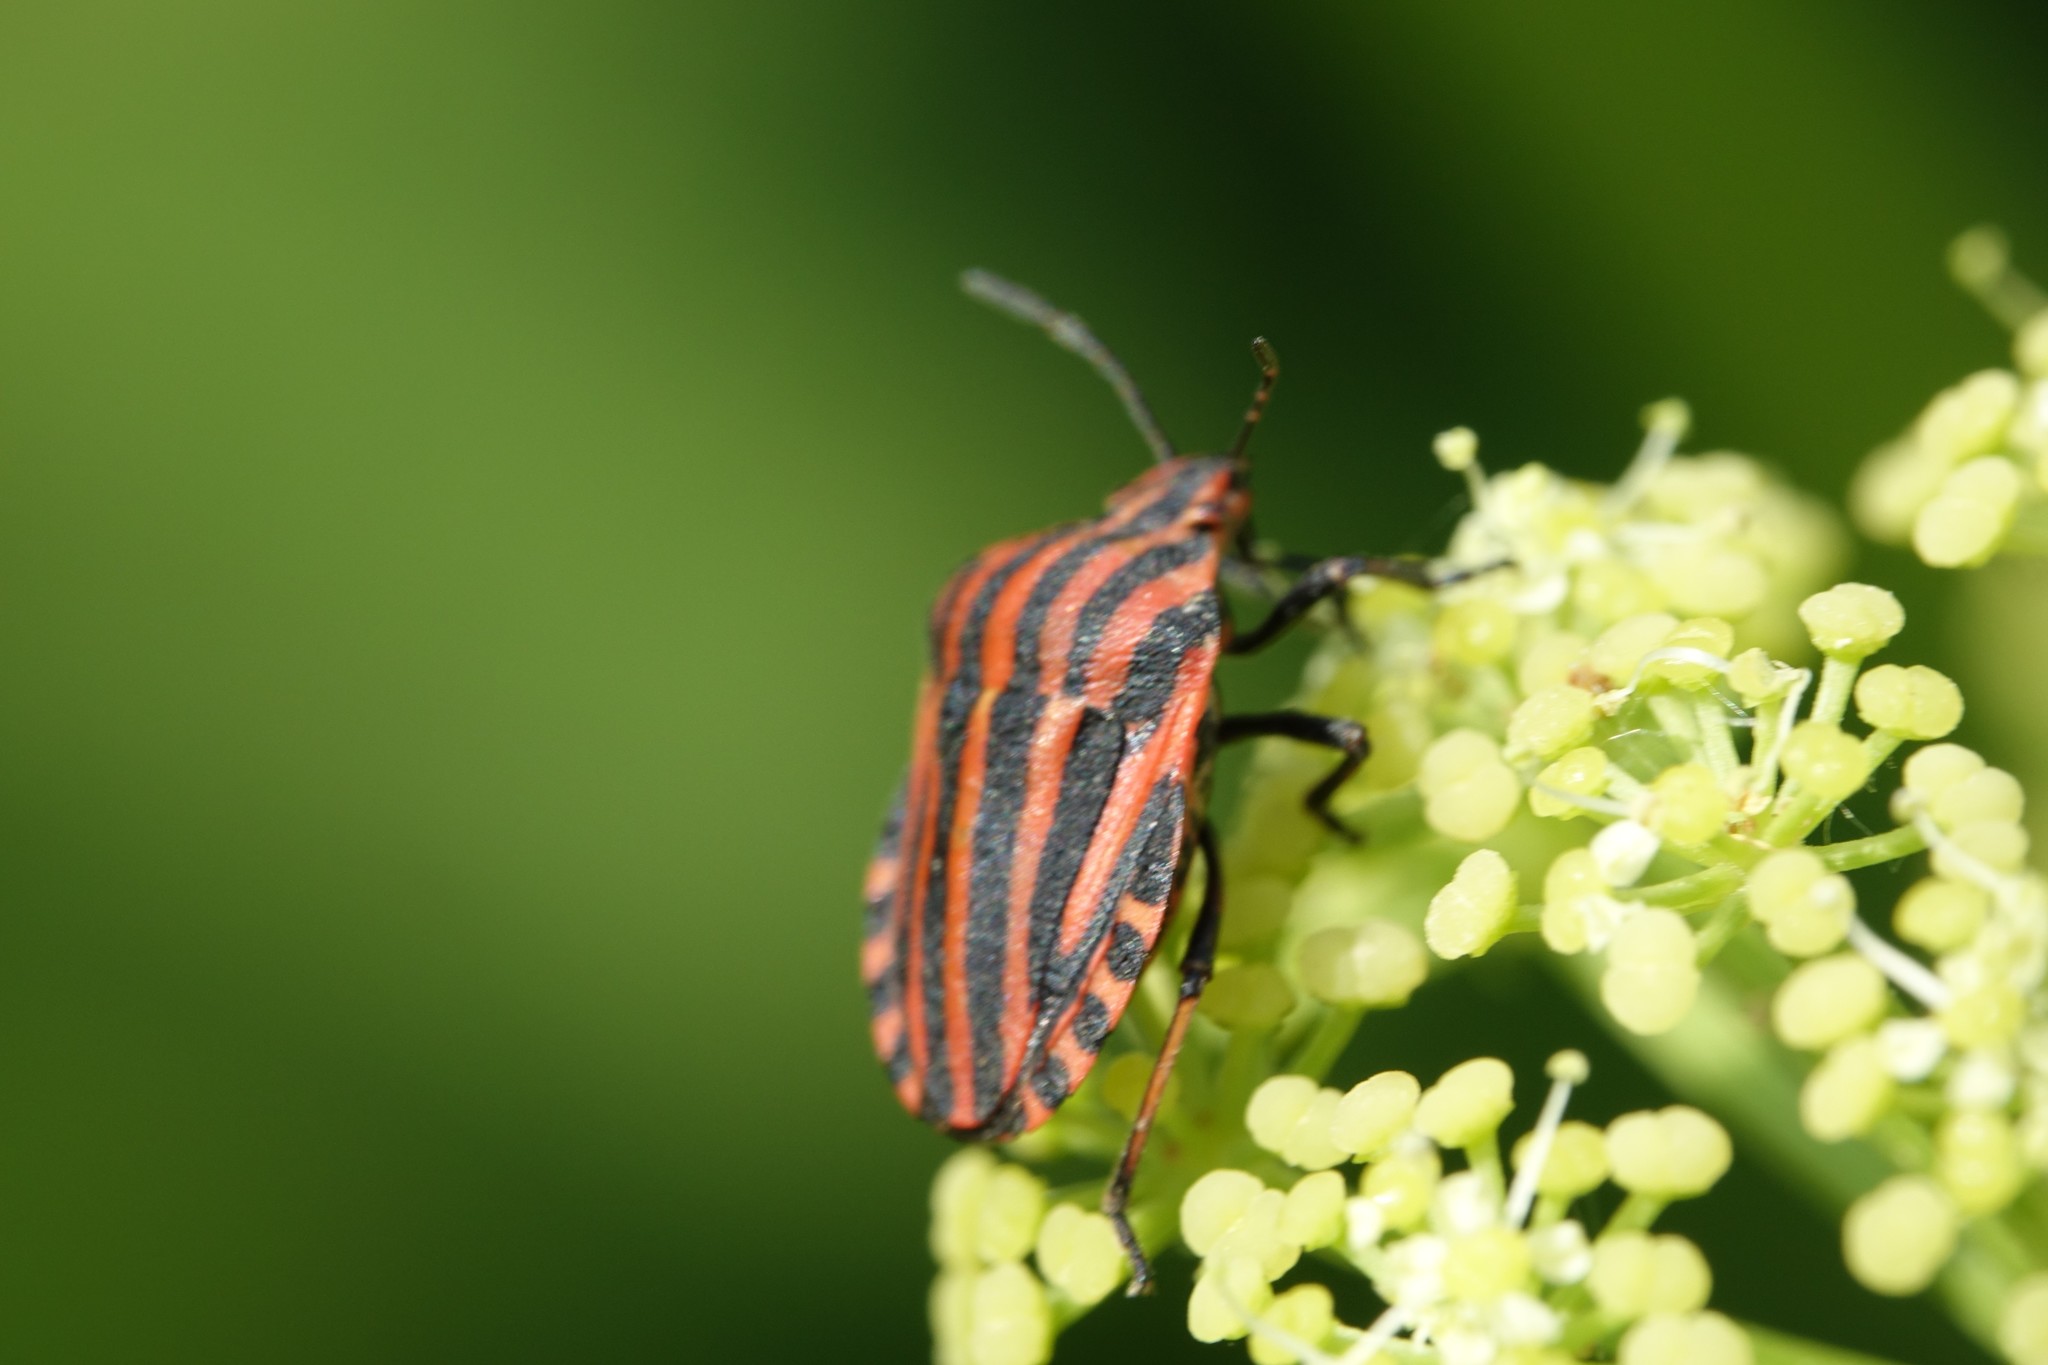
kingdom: Animalia
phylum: Arthropoda
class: Insecta
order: Hemiptera
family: Pentatomidae
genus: Graphosoma
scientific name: Graphosoma italicum
